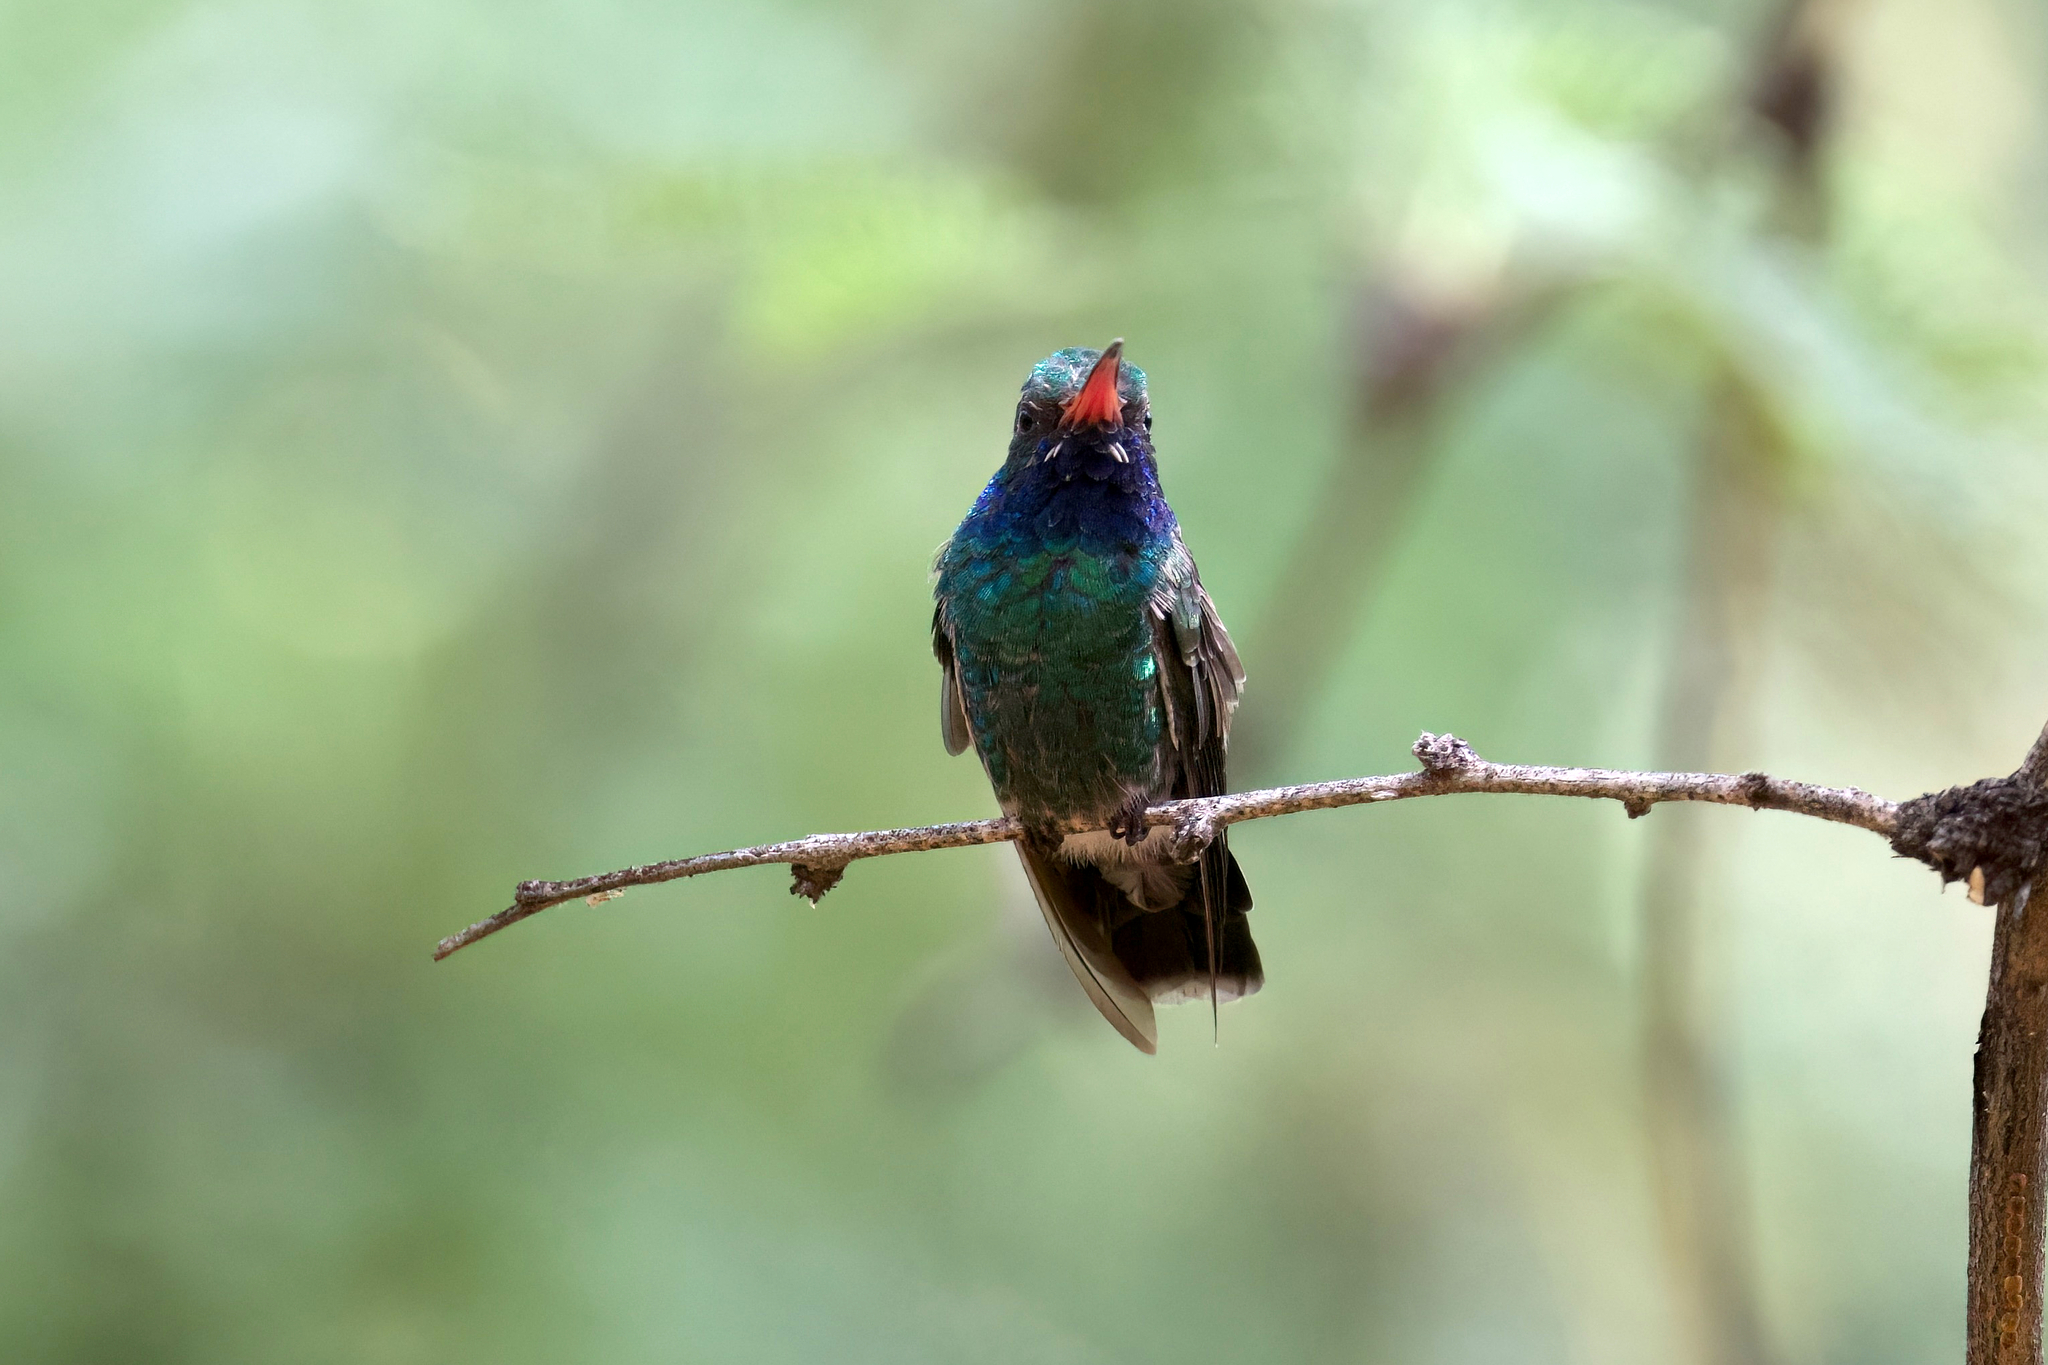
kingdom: Animalia
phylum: Chordata
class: Aves
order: Apodiformes
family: Trochilidae
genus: Cynanthus
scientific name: Cynanthus latirostris
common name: Broad-billed hummingbird
